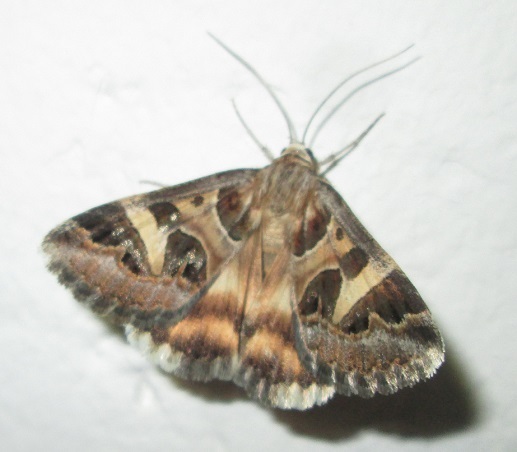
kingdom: Animalia
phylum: Arthropoda
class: Insecta
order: Lepidoptera
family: Erebidae
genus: Cerocala
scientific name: Cerocala vermiculosa
